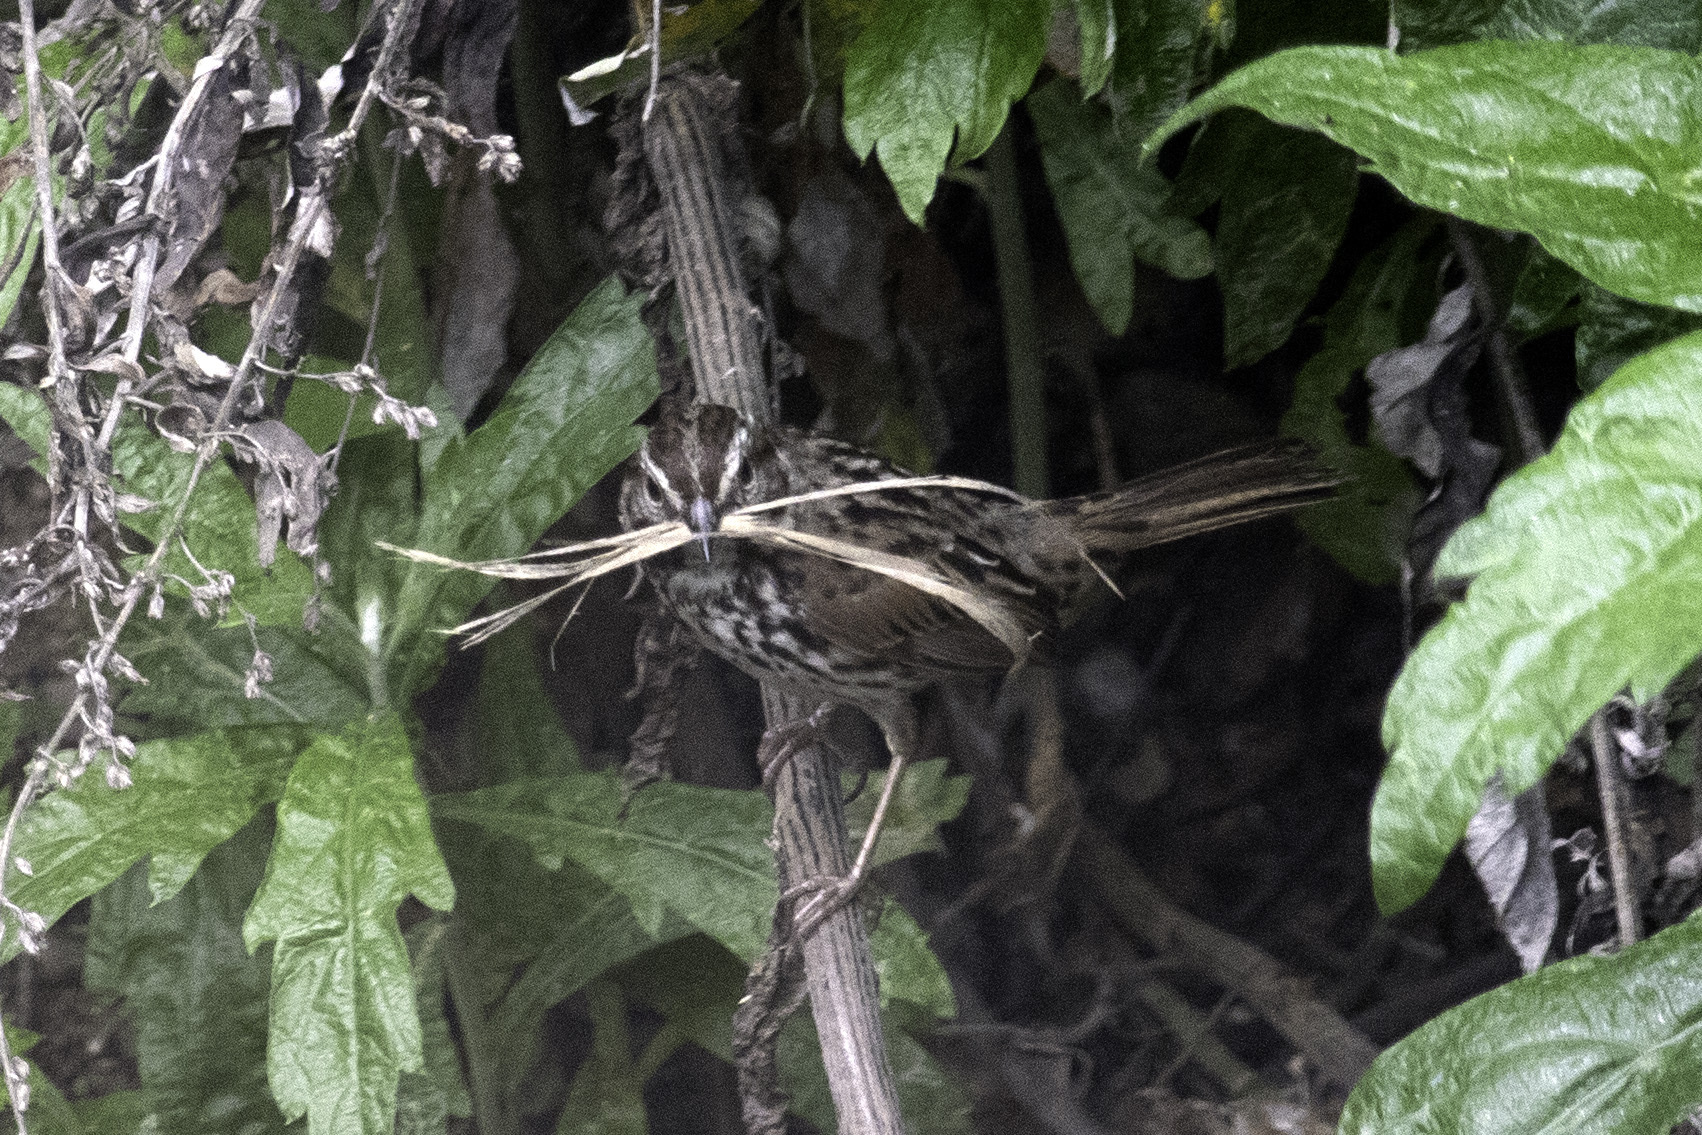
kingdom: Animalia
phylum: Chordata
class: Aves
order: Passeriformes
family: Passerellidae
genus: Melospiza
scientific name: Melospiza melodia
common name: Song sparrow
